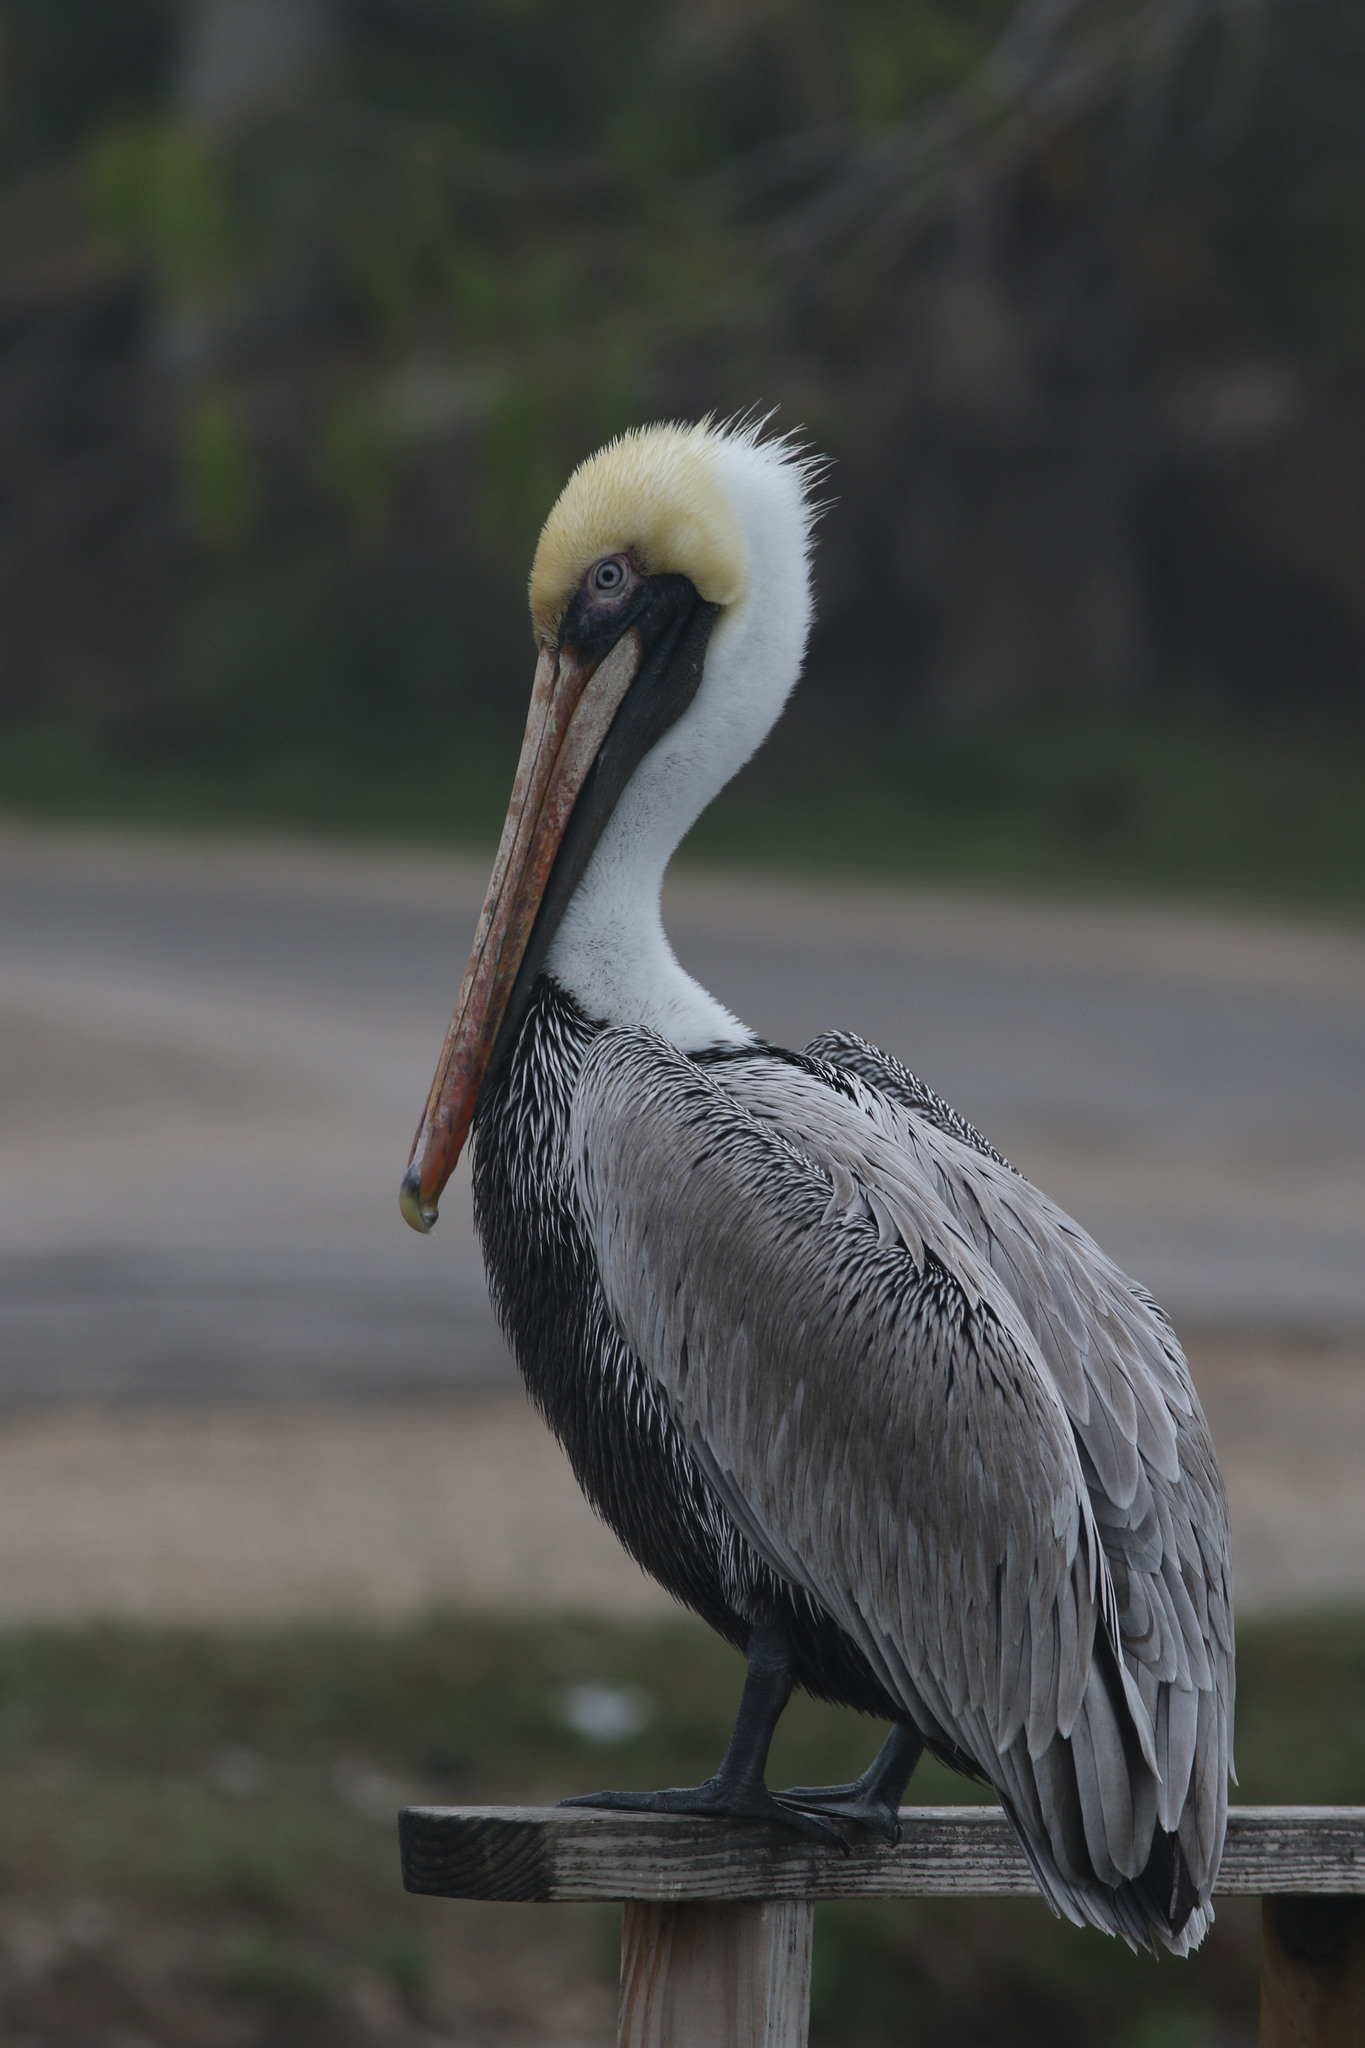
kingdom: Animalia
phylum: Chordata
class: Aves
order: Pelecaniformes
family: Pelecanidae
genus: Pelecanus
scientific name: Pelecanus occidentalis
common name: Brown pelican
